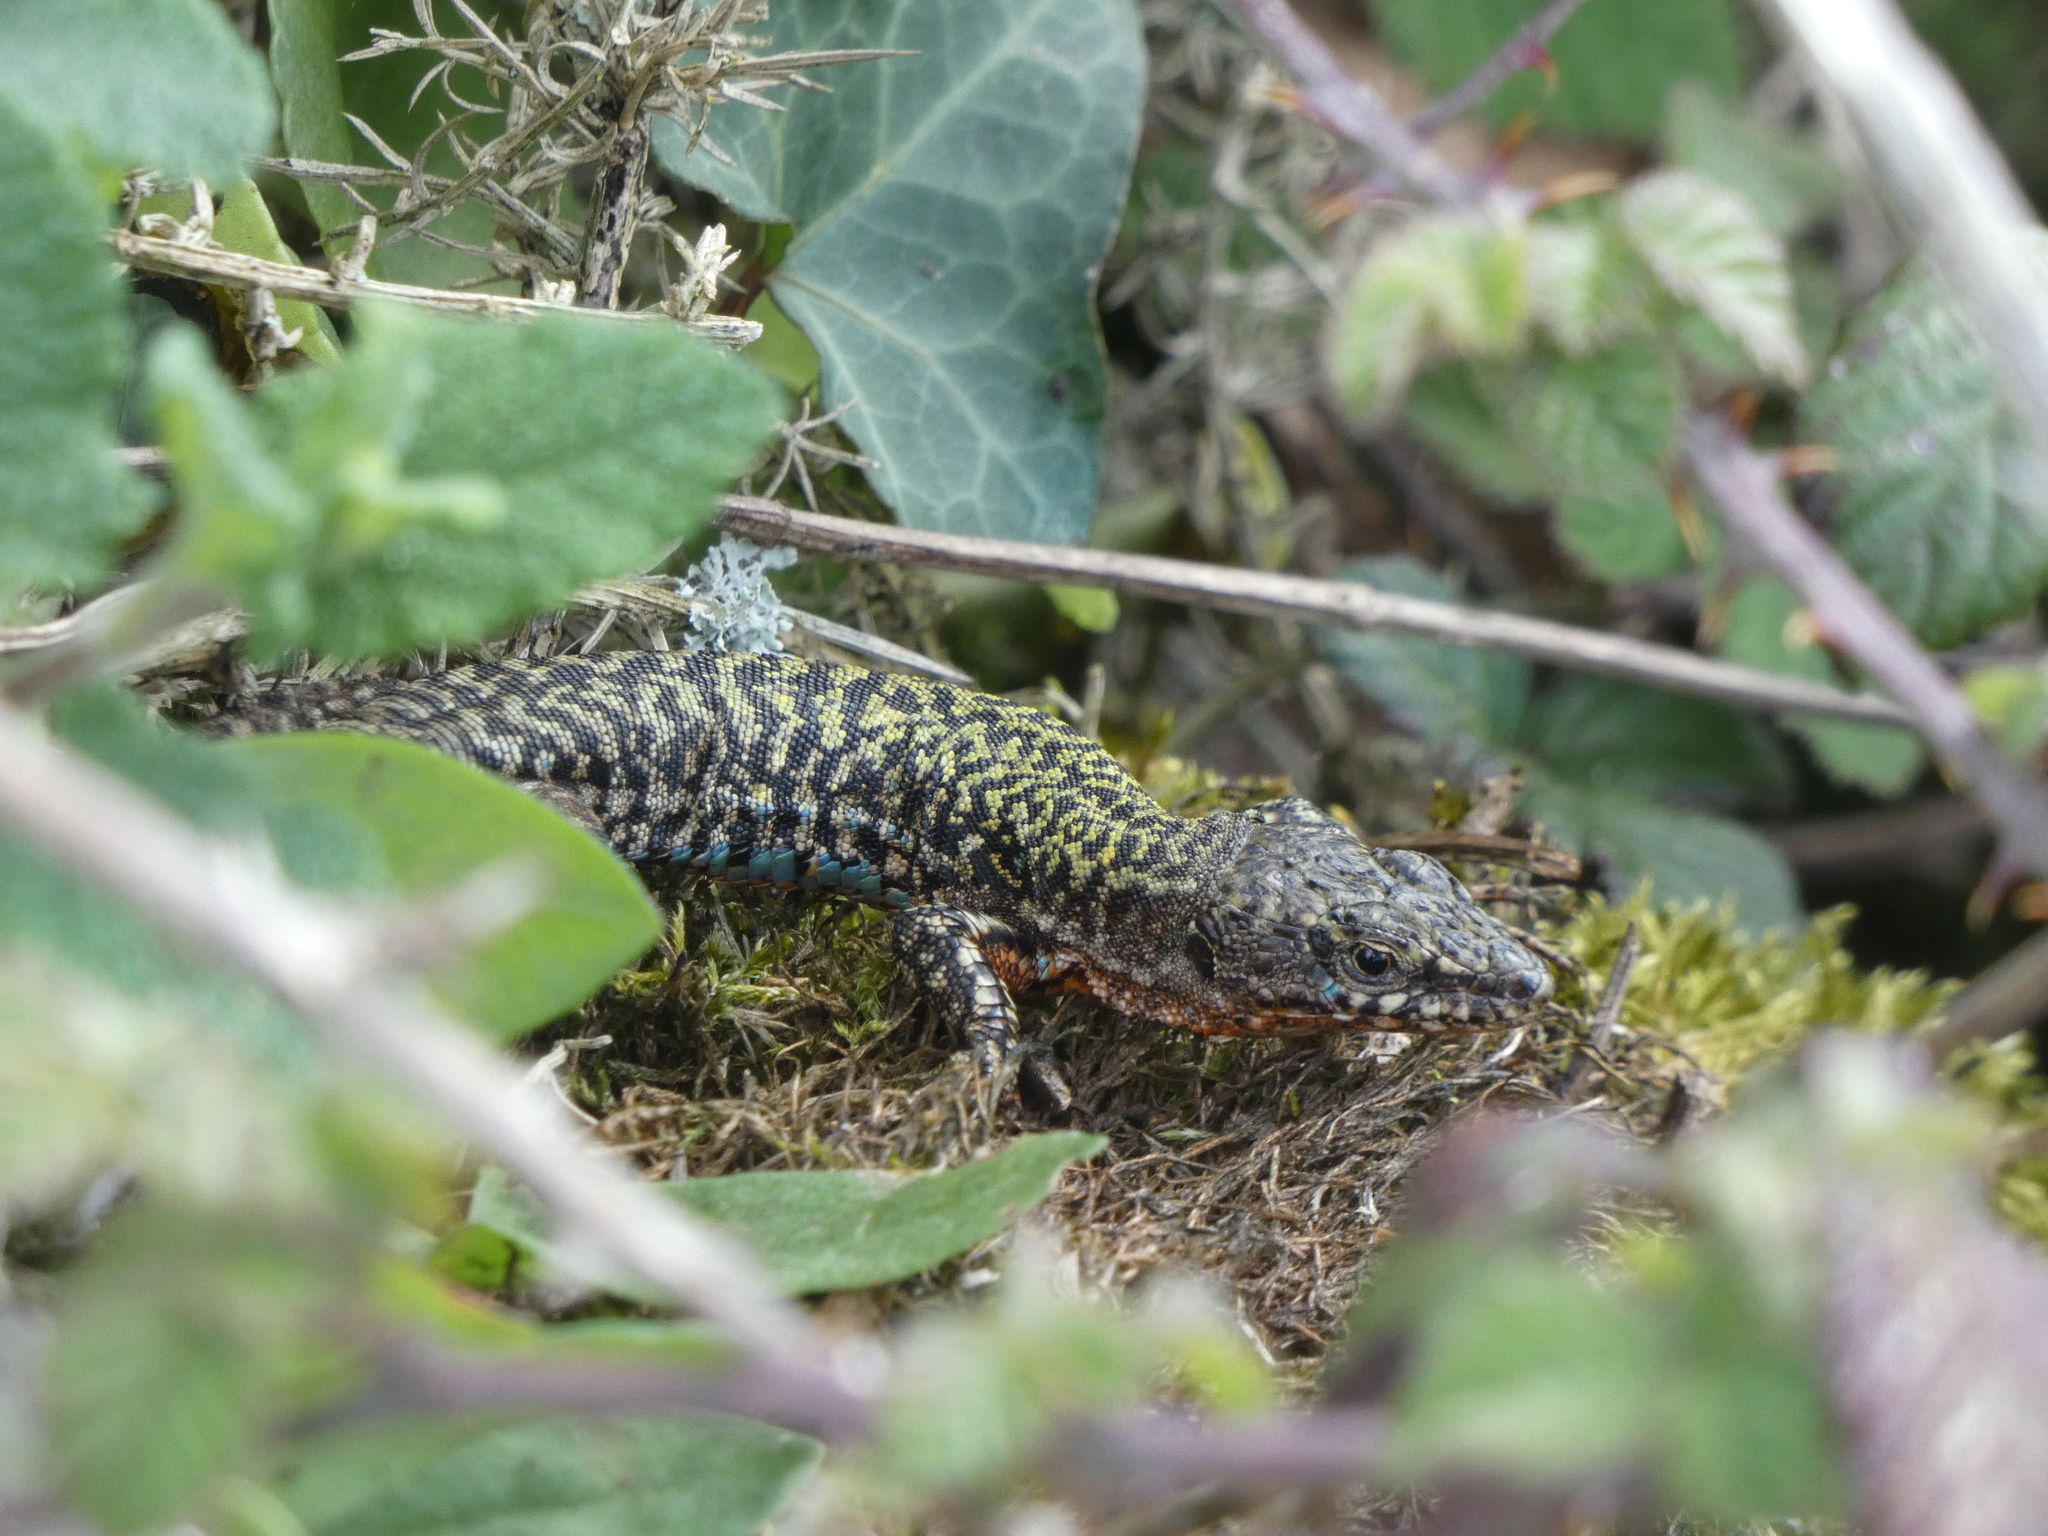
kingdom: Animalia
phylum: Chordata
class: Squamata
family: Lacertidae
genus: Podarcis
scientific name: Podarcis muralis
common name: Common wall lizard
